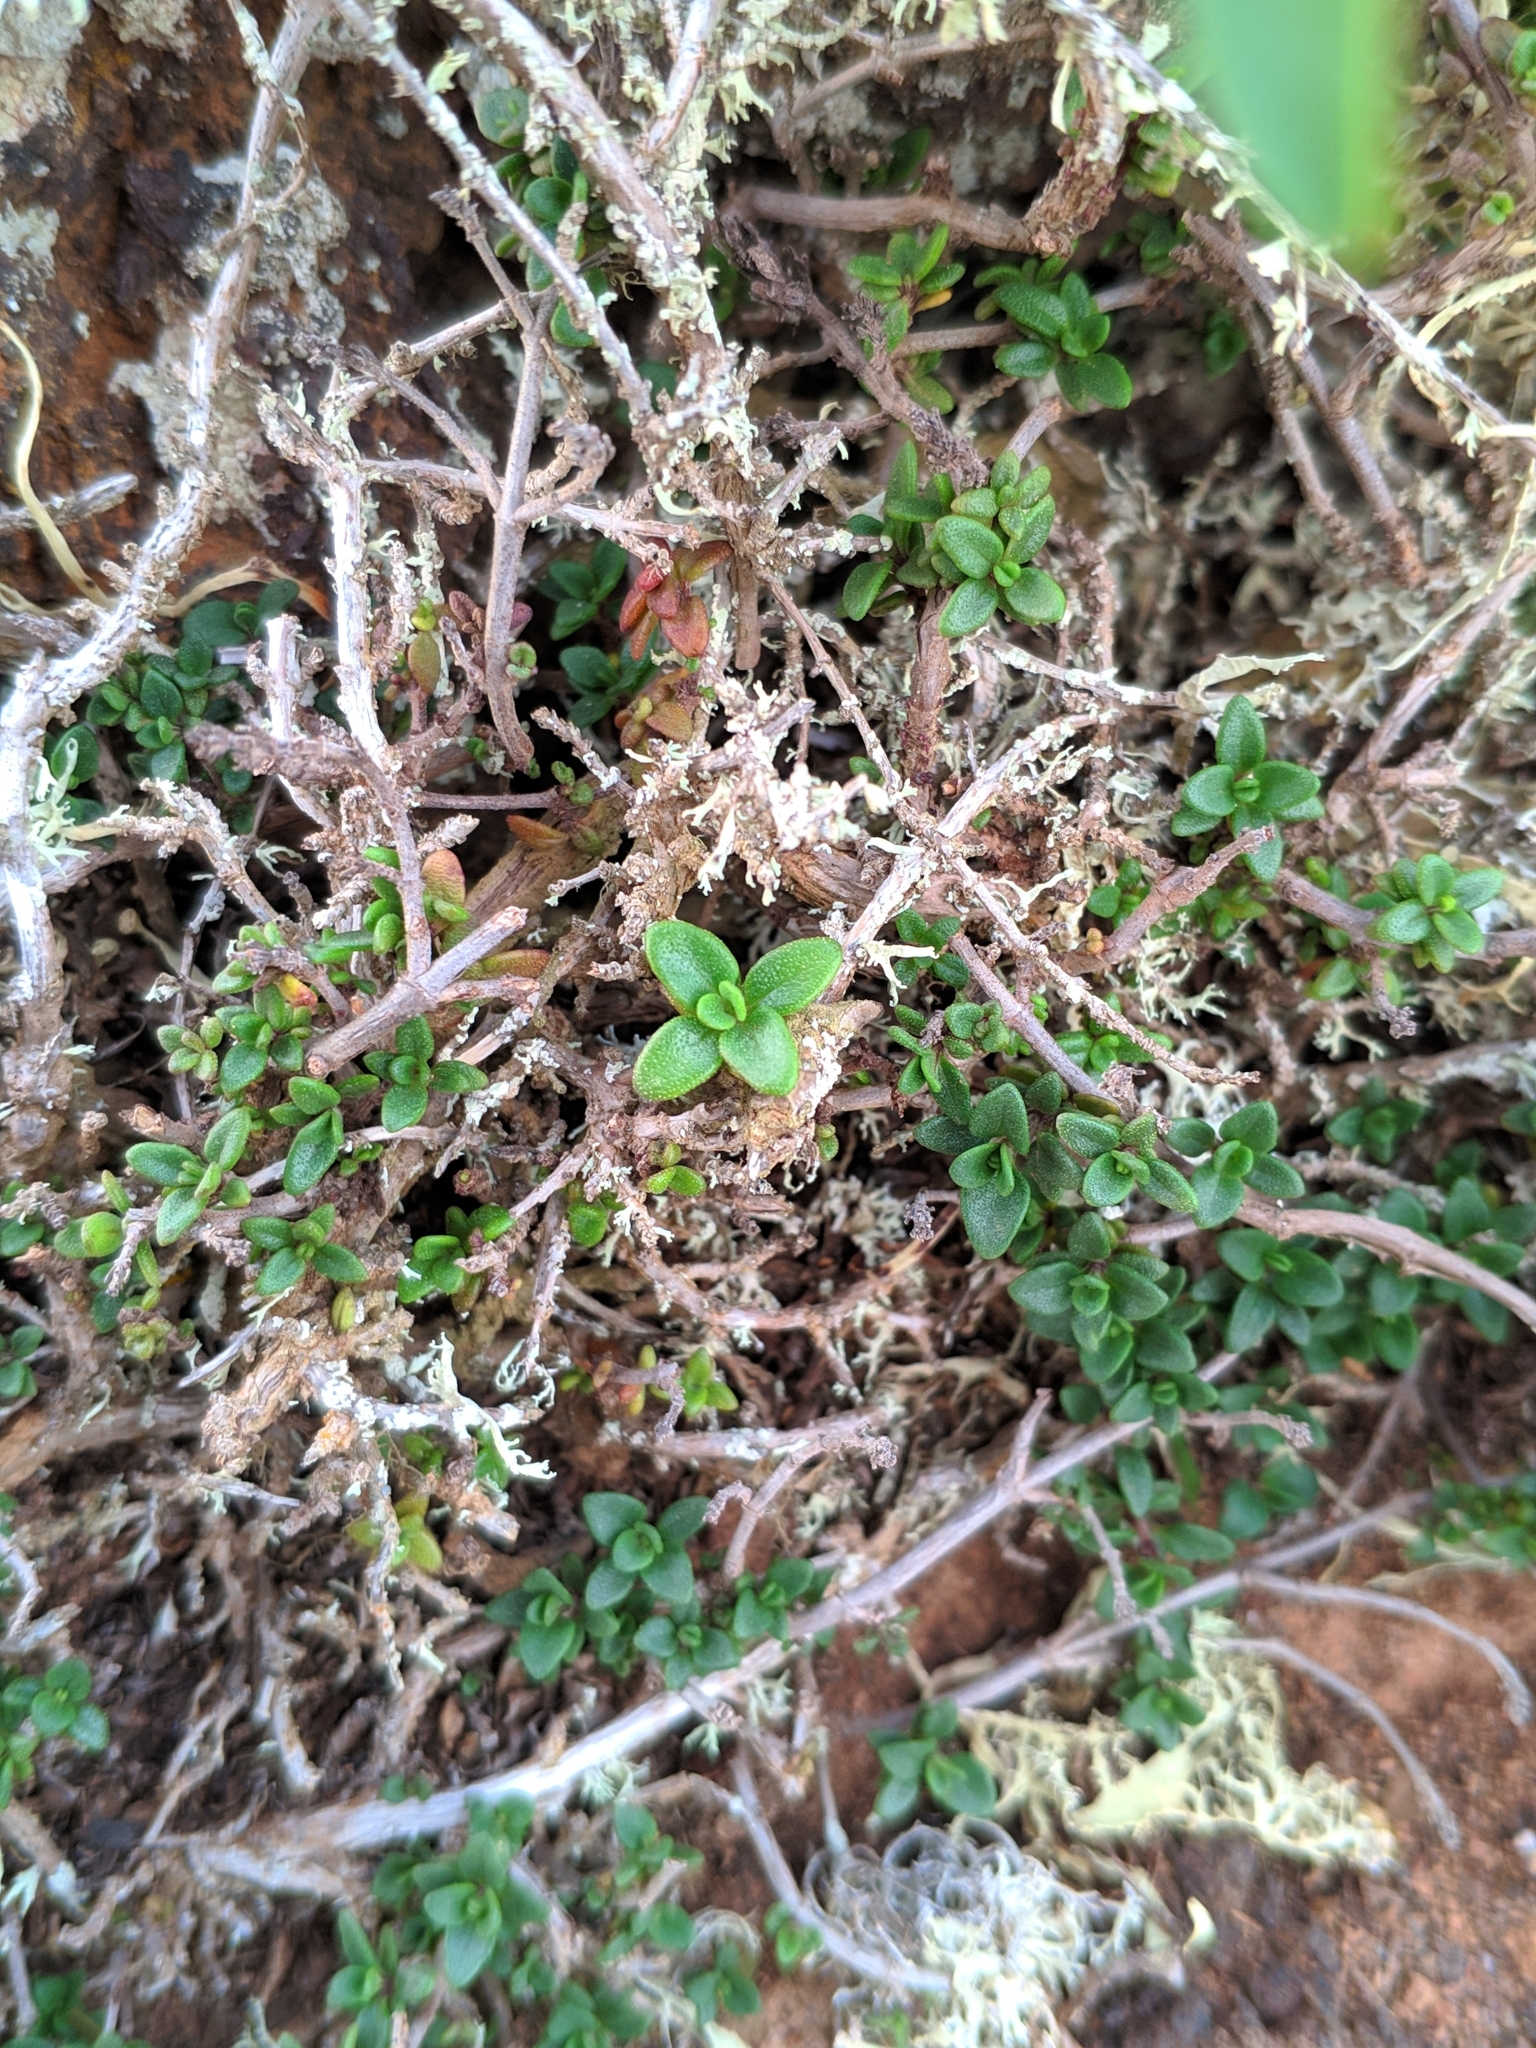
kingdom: Plantae
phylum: Tracheophyta
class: Magnoliopsida
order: Lamiales
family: Lamiaceae
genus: Thymus
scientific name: Thymus origanoides
